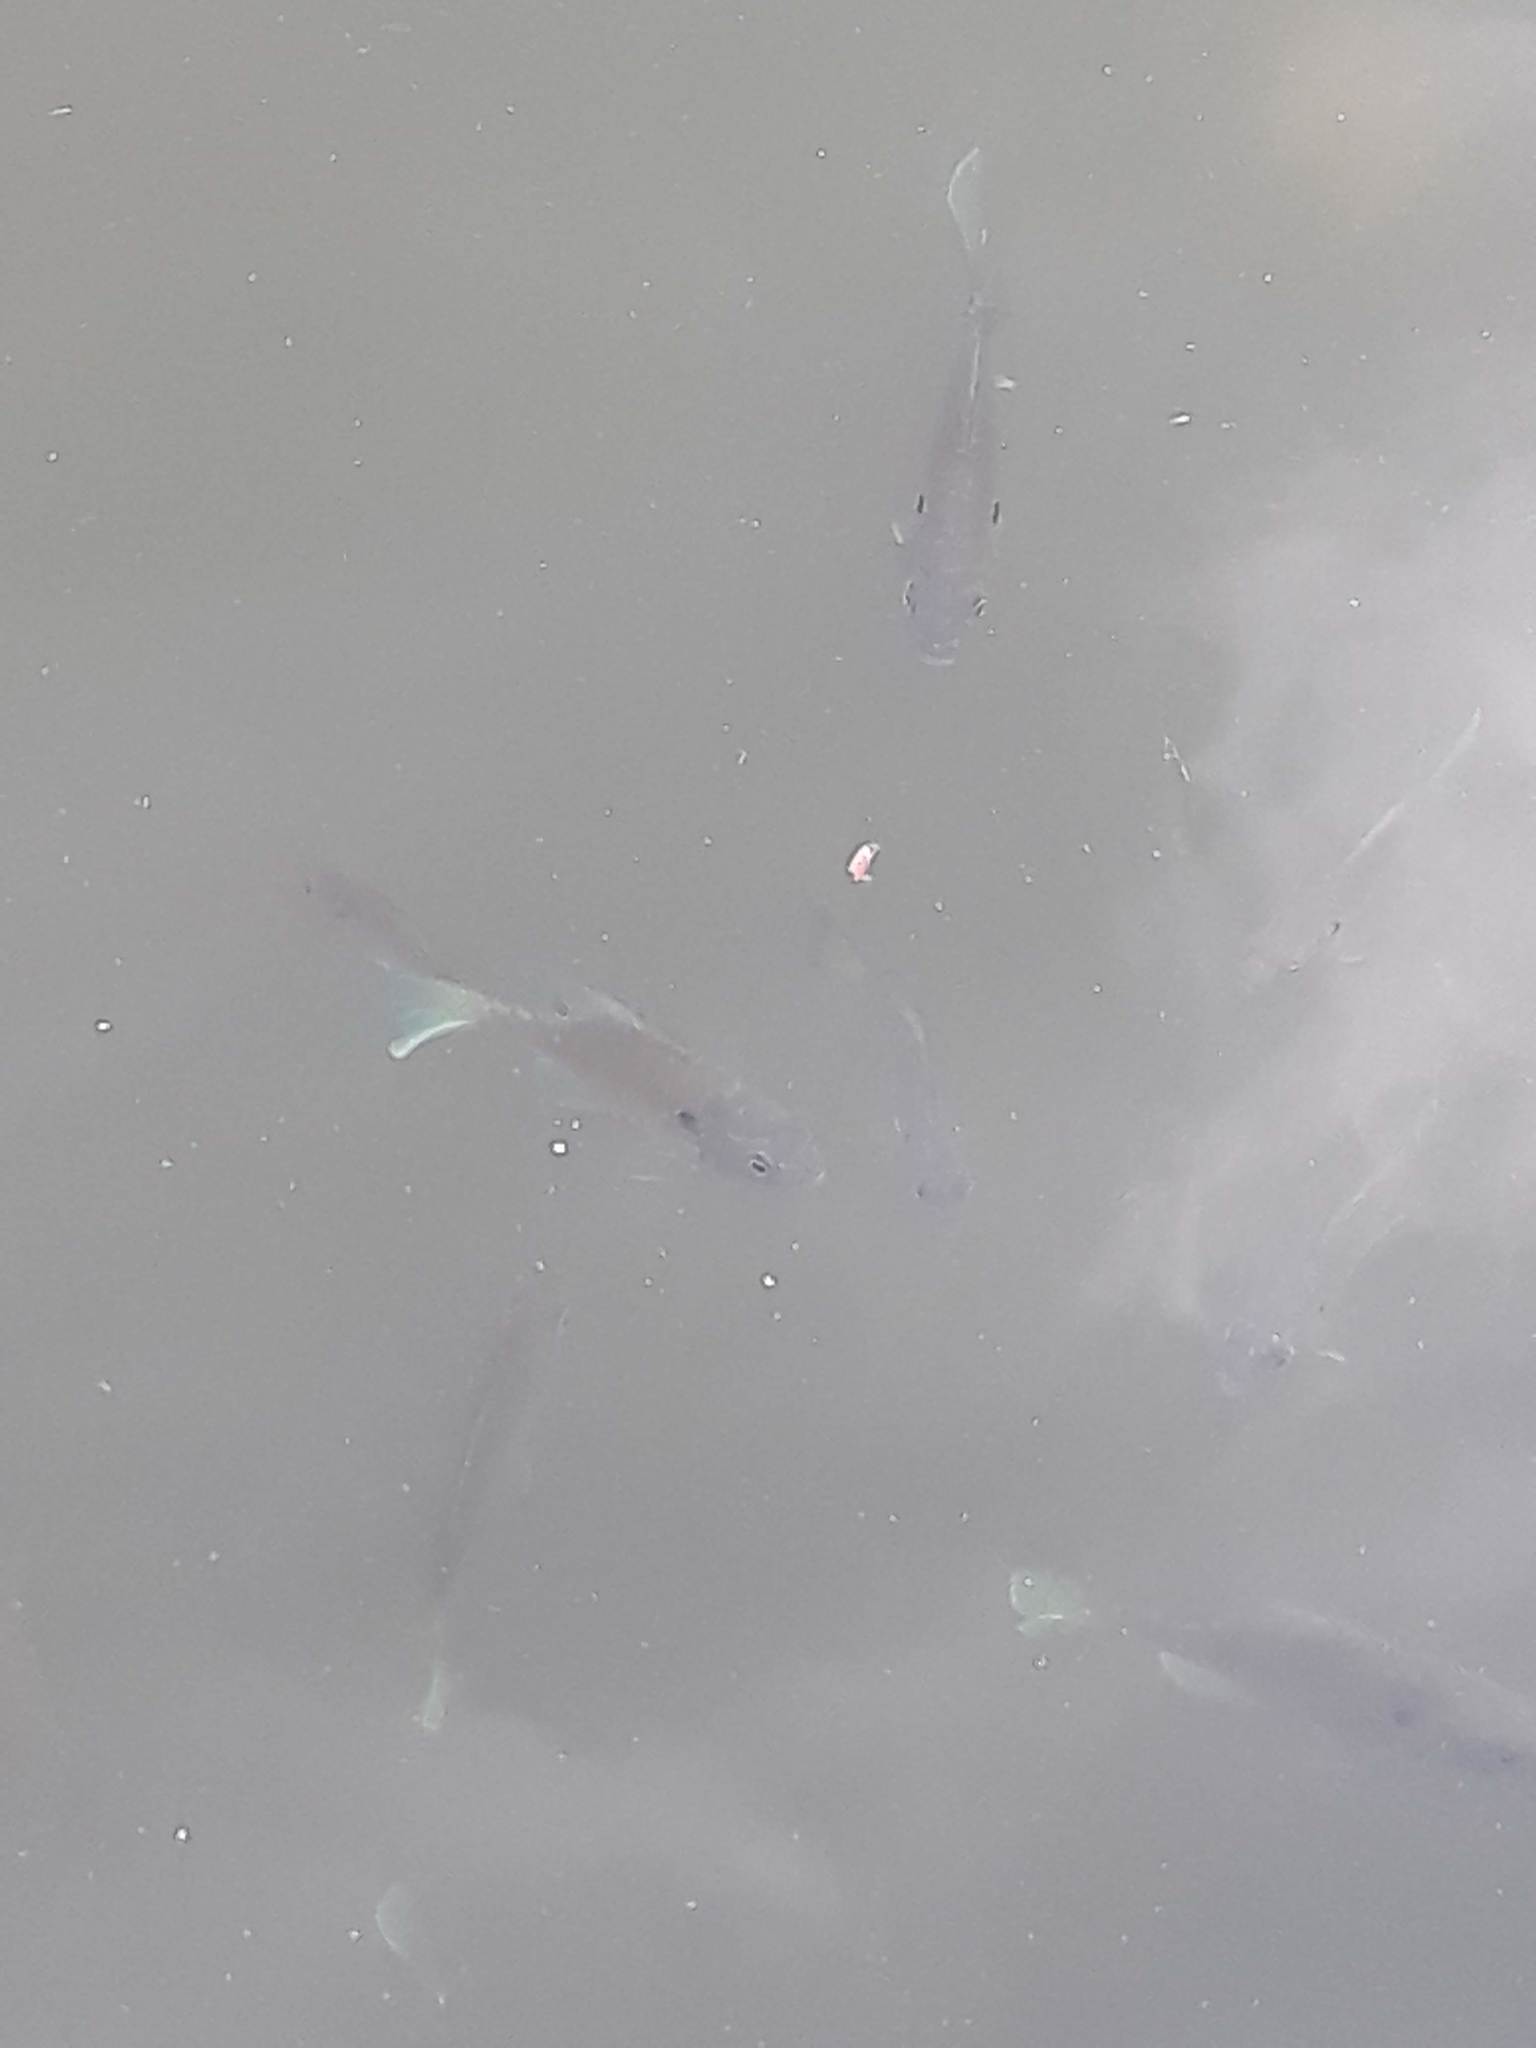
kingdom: Animalia
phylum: Chordata
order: Perciformes
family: Centrarchidae
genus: Lepomis
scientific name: Lepomis
